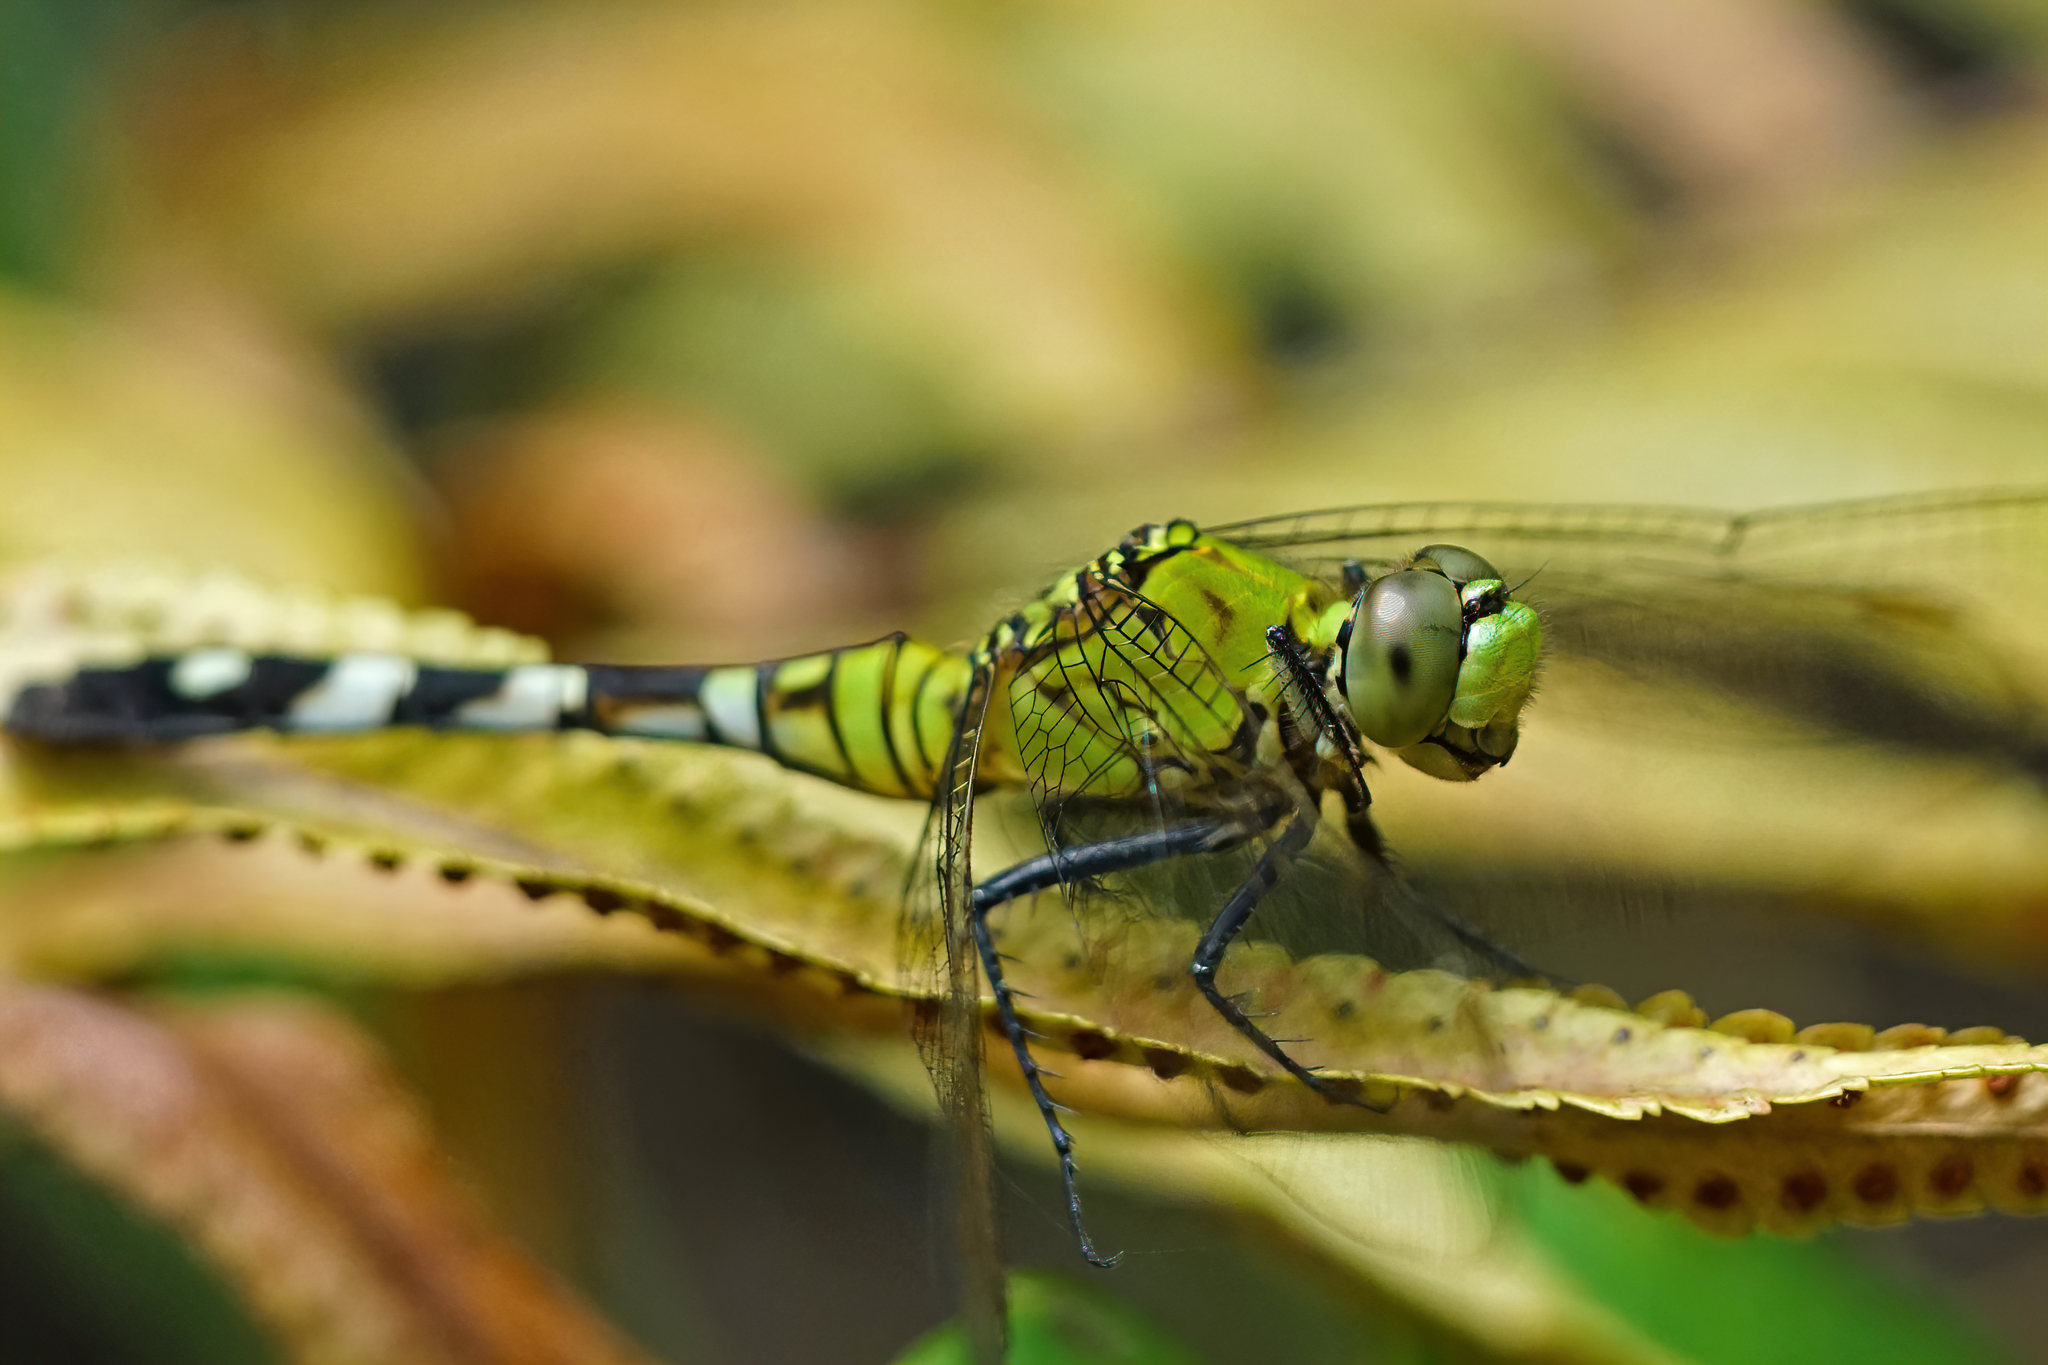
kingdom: Animalia
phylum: Arthropoda
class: Insecta
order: Odonata
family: Libellulidae
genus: Erythemis
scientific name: Erythemis simplicicollis
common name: Eastern pondhawk
